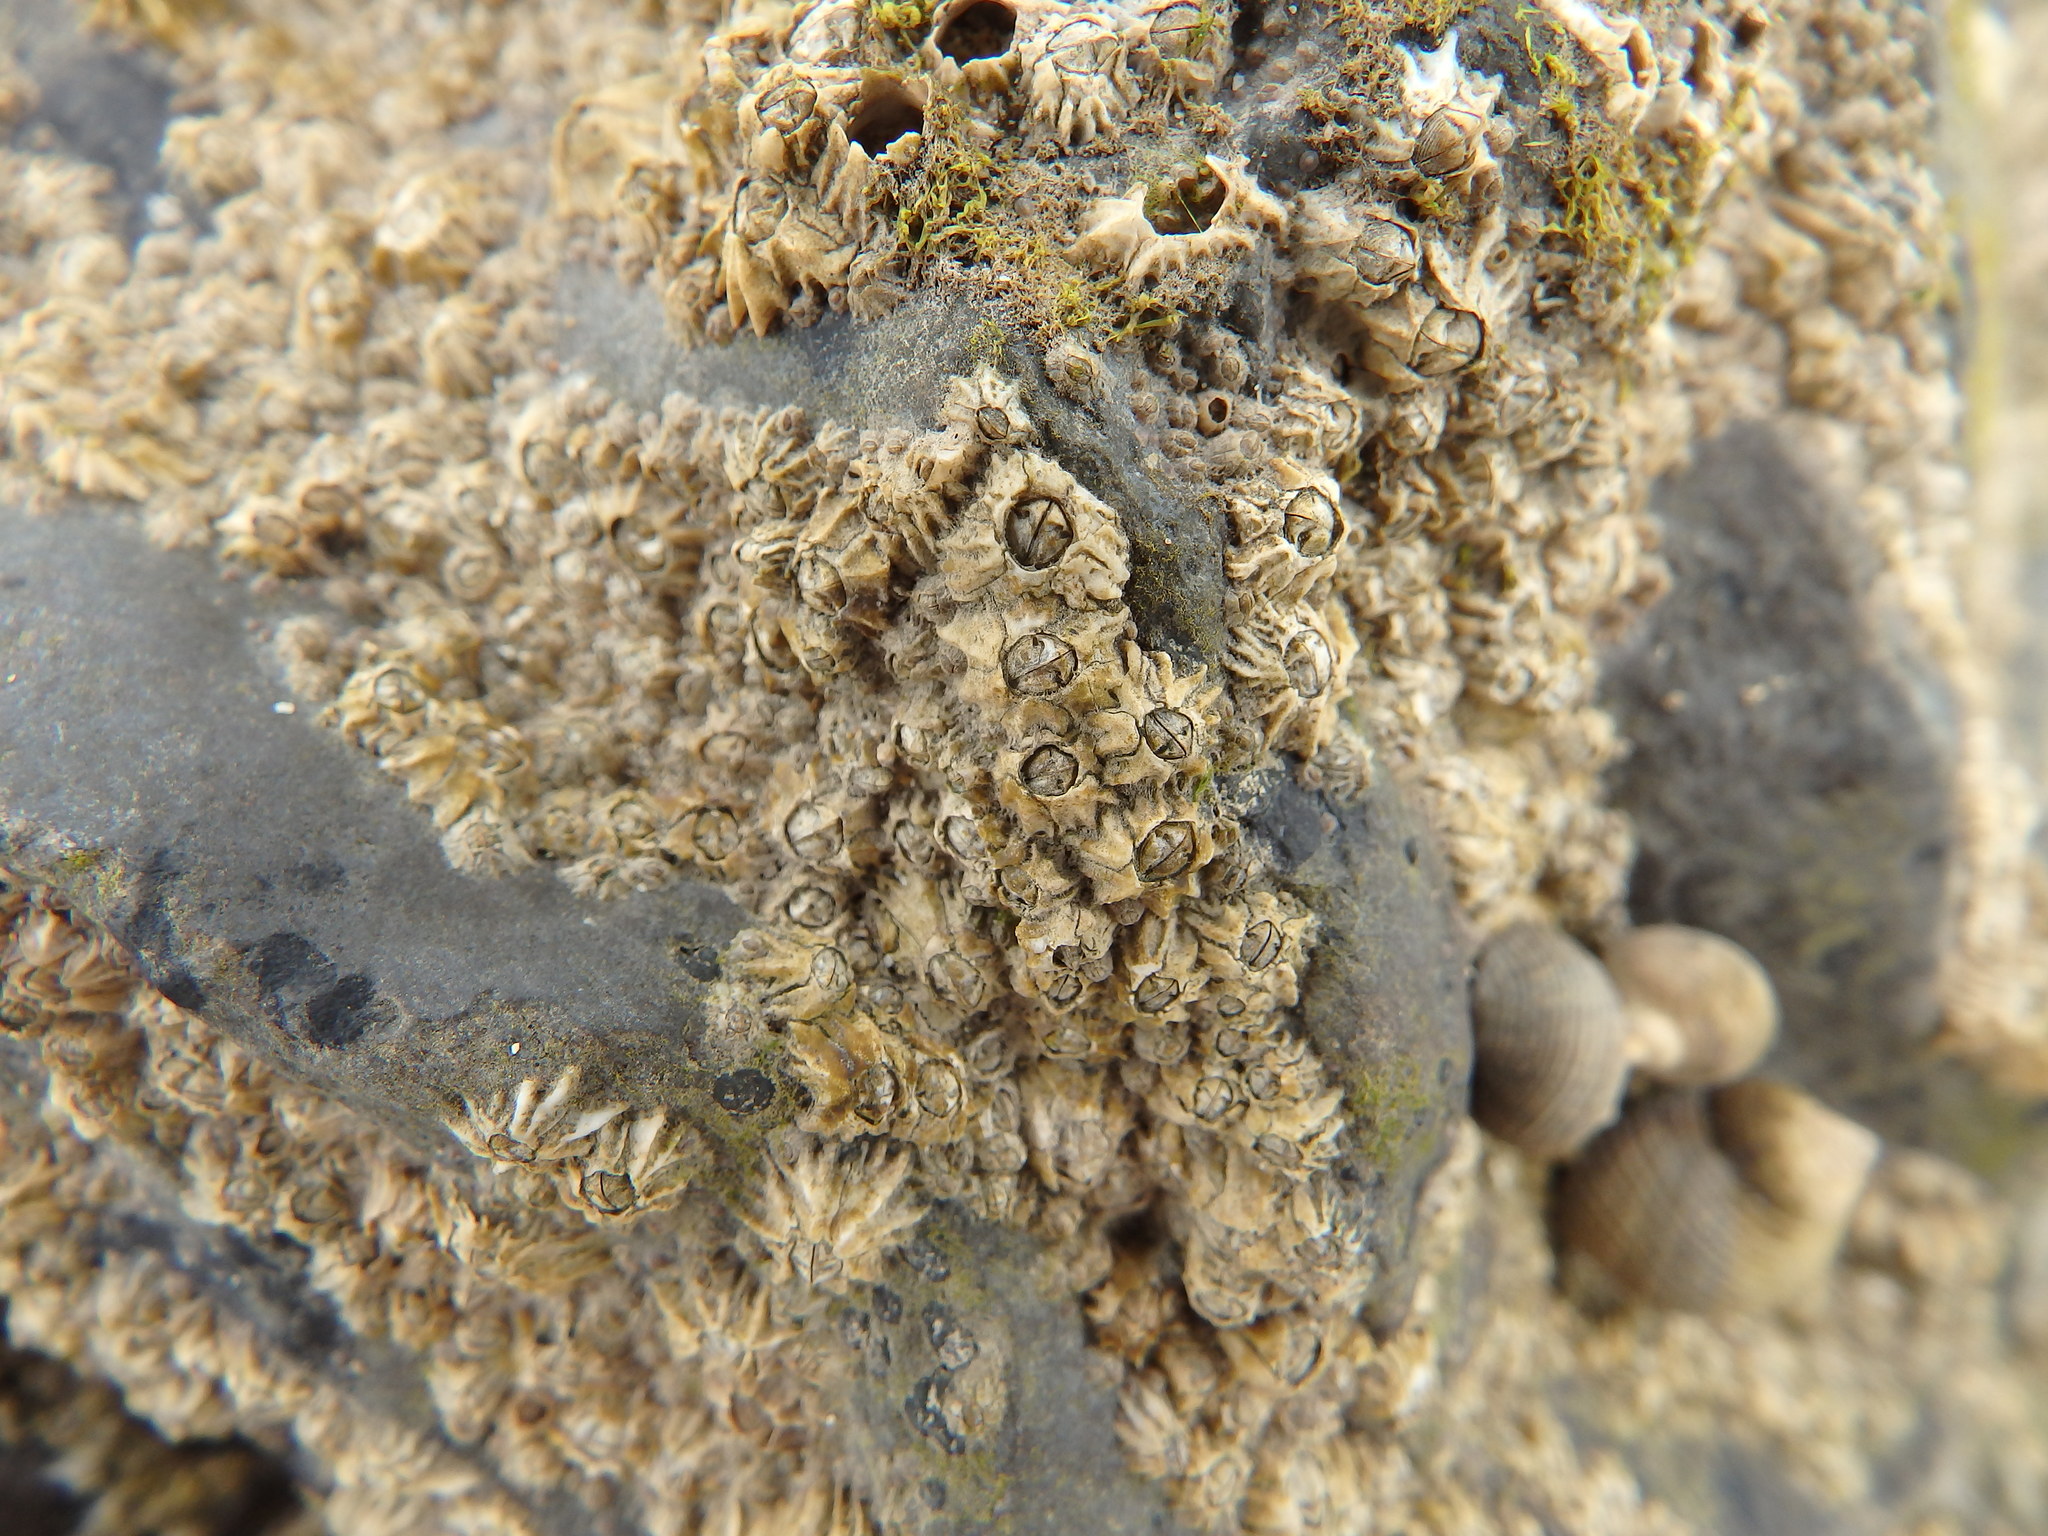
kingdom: Animalia
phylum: Arthropoda
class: Maxillopoda
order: Sessilia
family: Chthamalidae
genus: Chthamalus
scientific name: Chthamalus stellatus
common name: Poli's stellate barnacle
